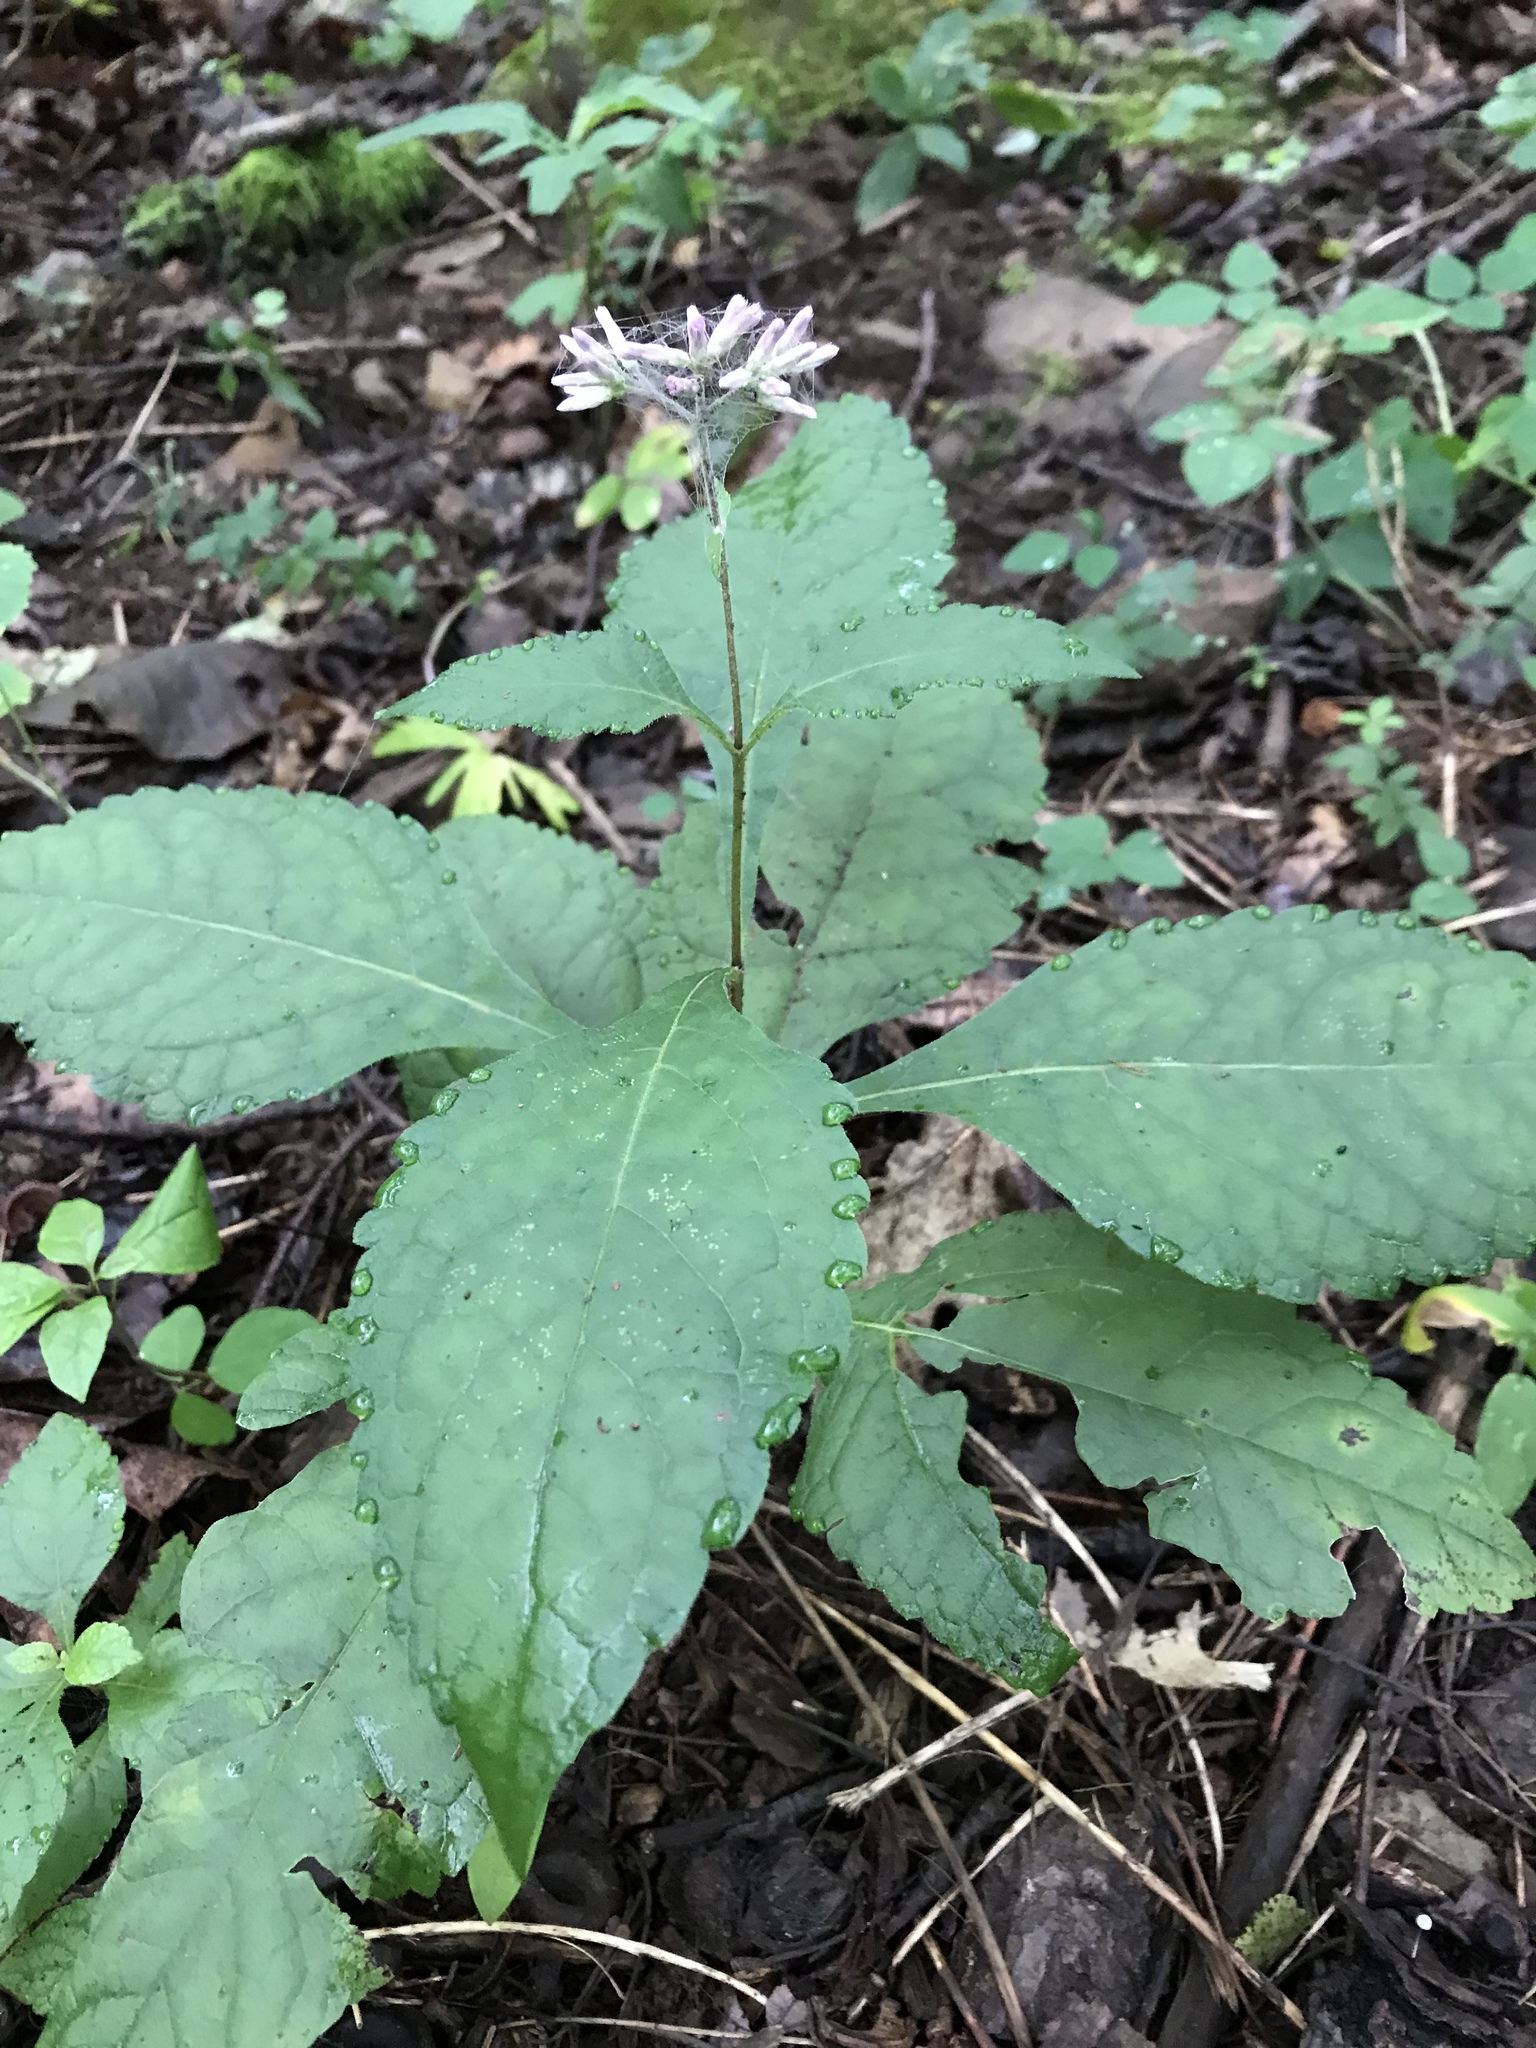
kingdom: Plantae
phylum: Tracheophyta
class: Magnoliopsida
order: Asterales
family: Asteraceae
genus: Eutrochium
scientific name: Eutrochium purpureum
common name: Gravelroot
